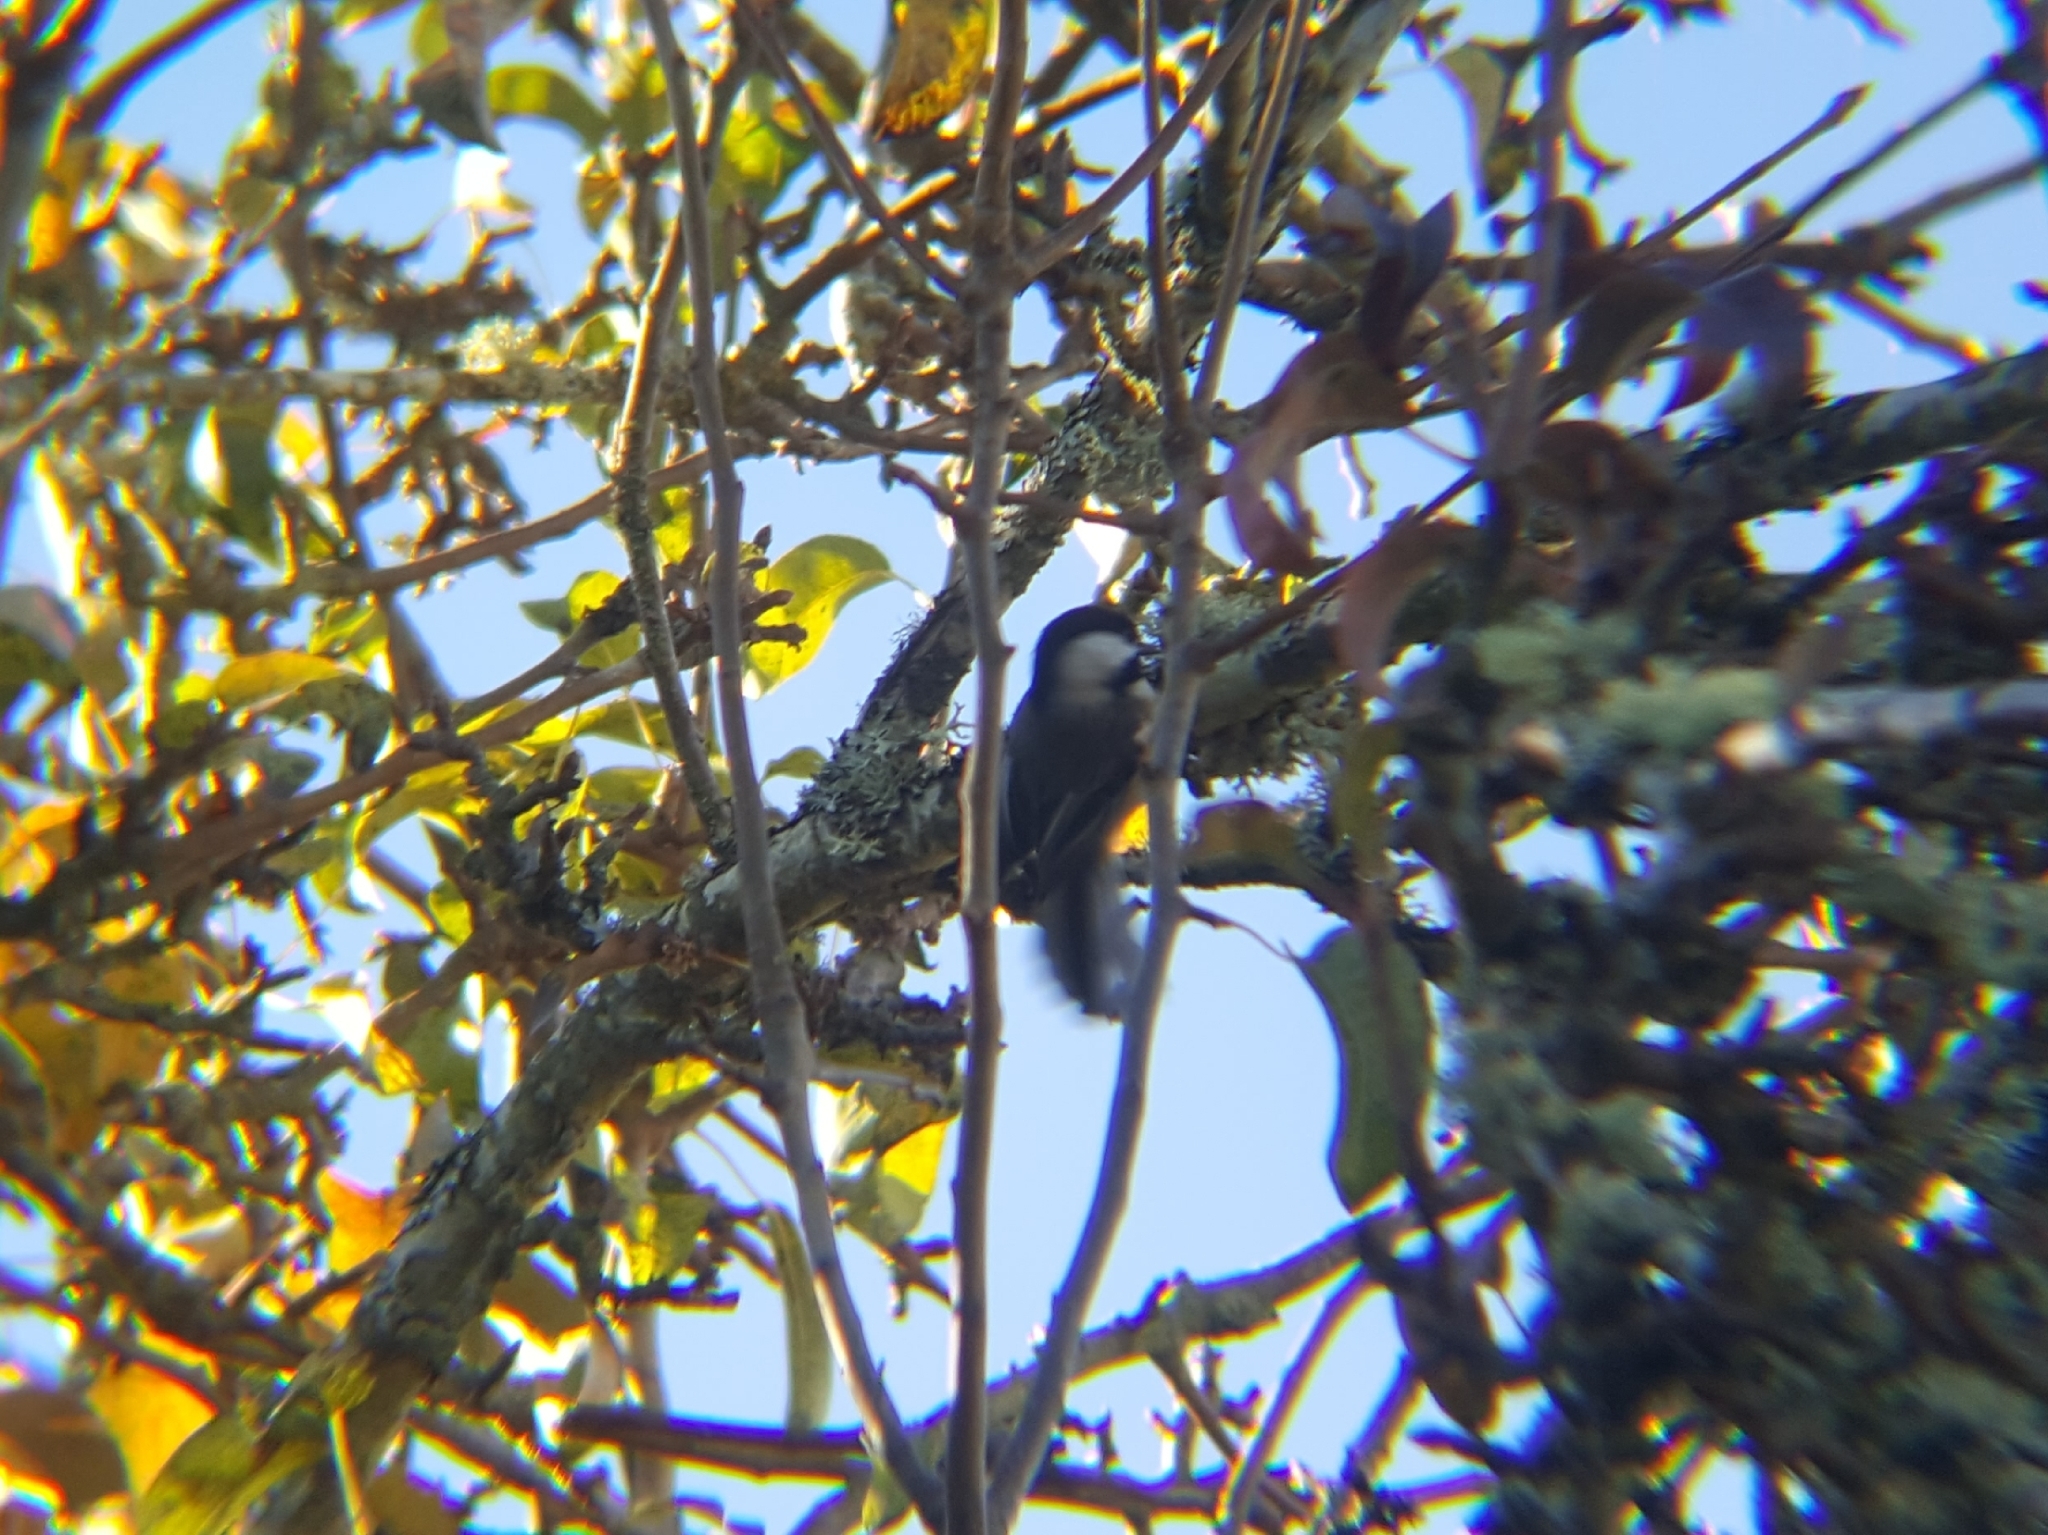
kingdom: Animalia
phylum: Chordata
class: Aves
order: Passeriformes
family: Paridae
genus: Poecile
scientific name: Poecile atricapillus
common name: Black-capped chickadee
